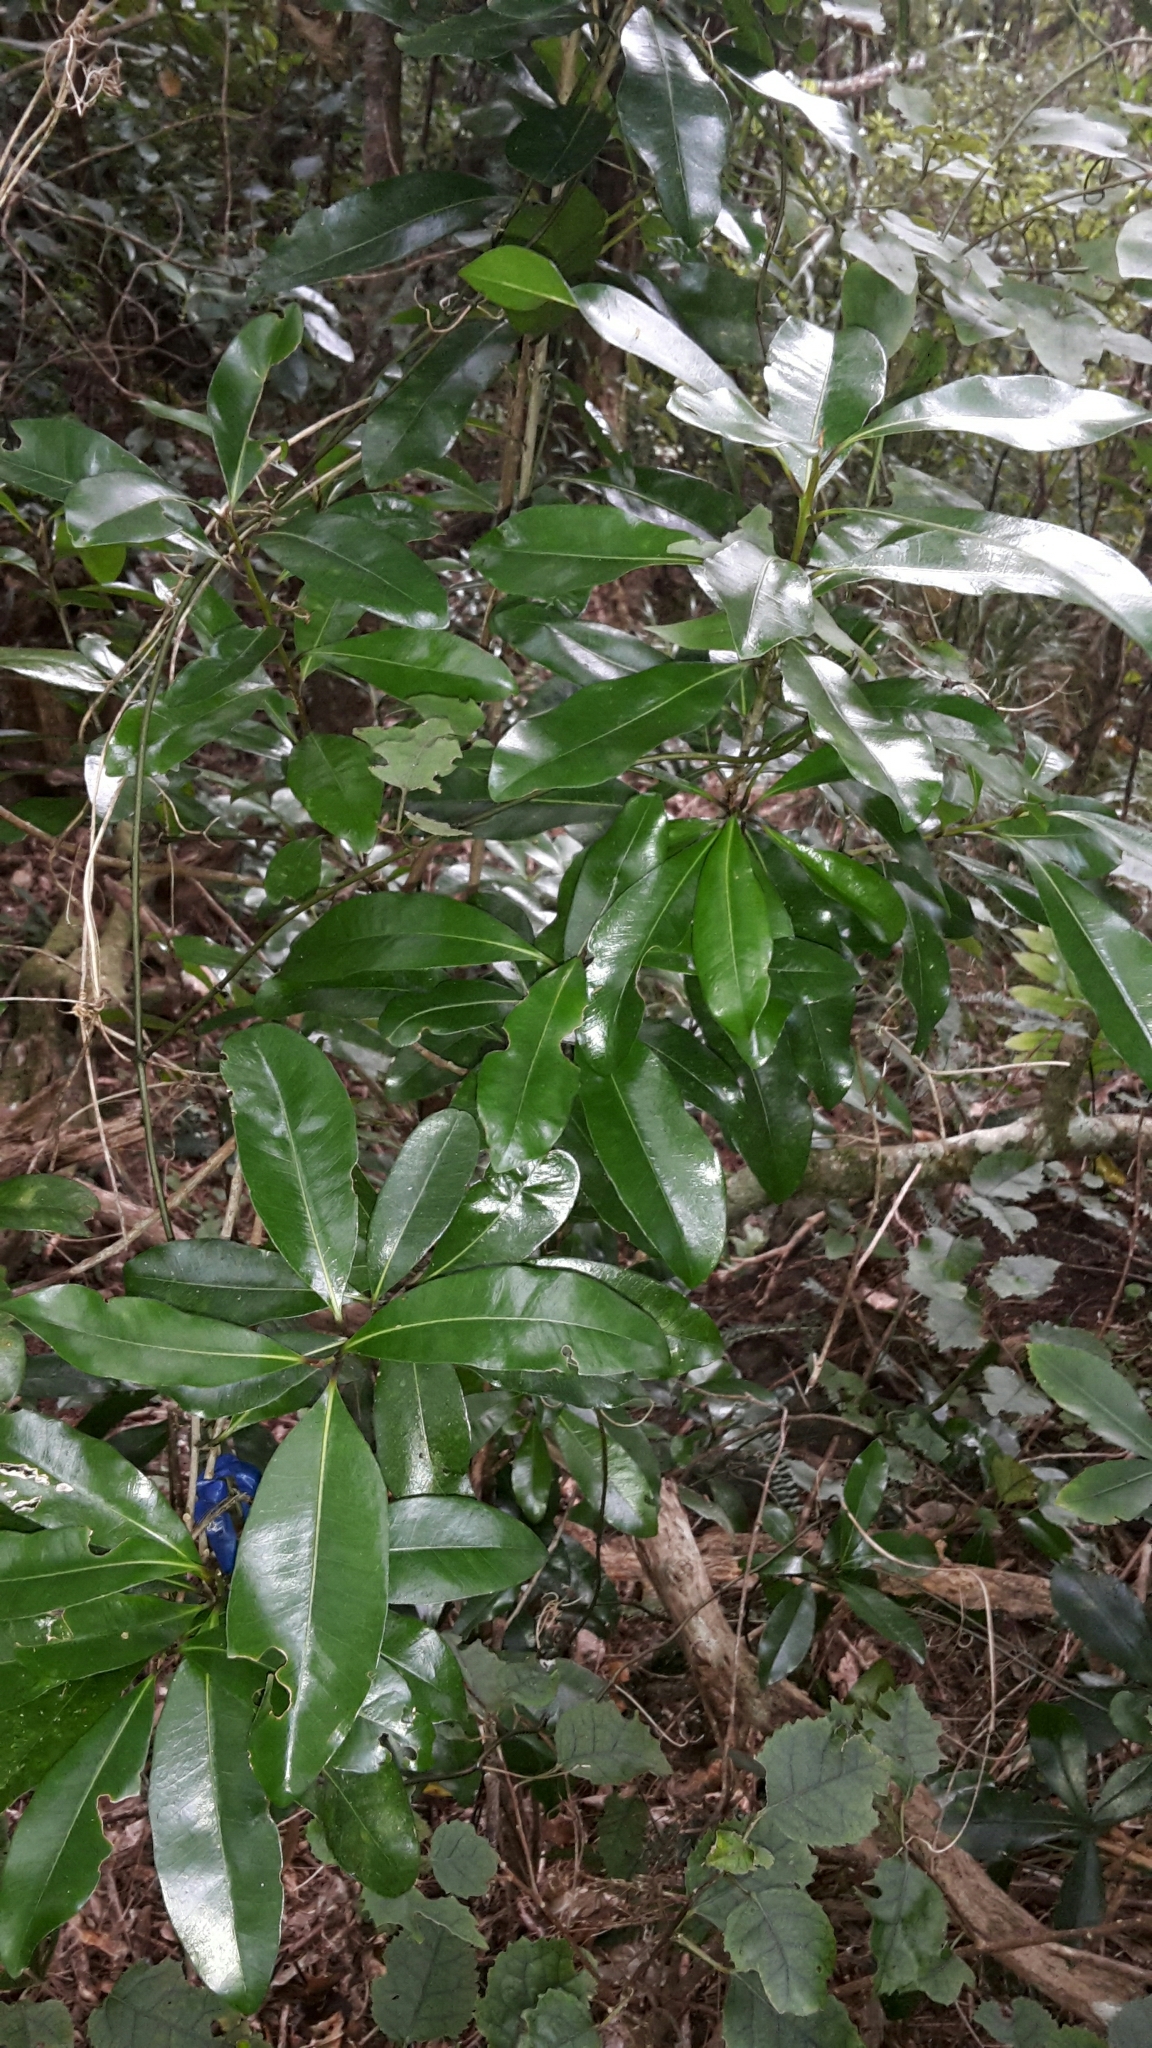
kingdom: Plantae
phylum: Tracheophyta
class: Magnoliopsida
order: Ericales
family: Sapotaceae
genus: Planchonella
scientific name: Planchonella costata
